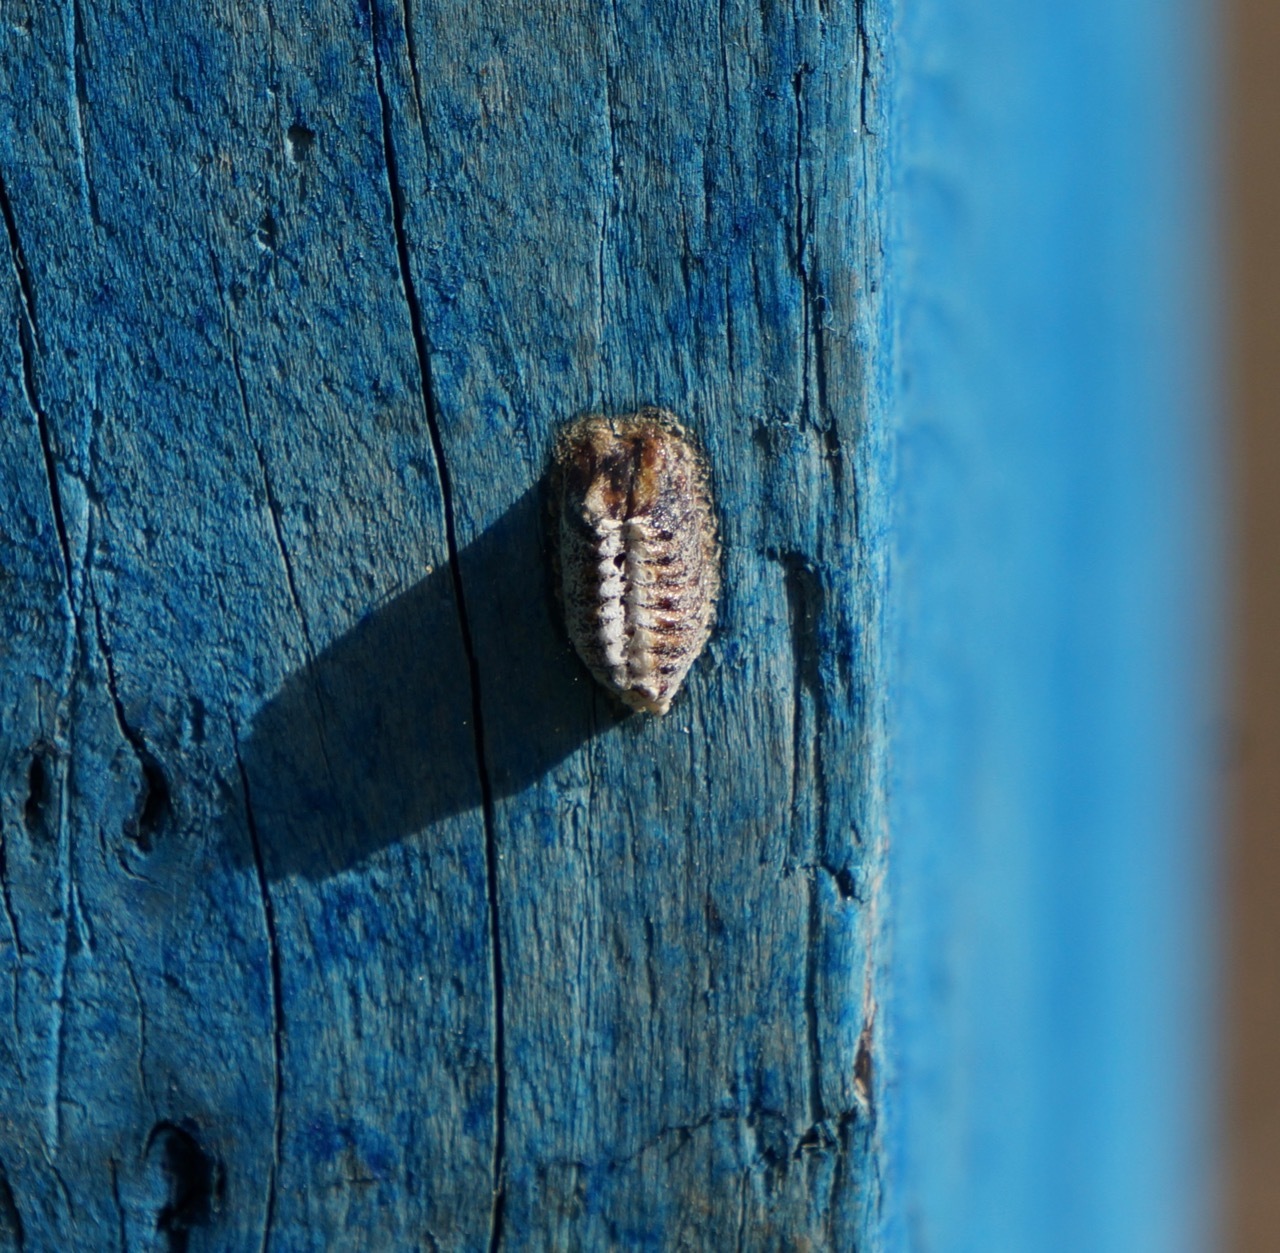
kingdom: Animalia
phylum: Arthropoda
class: Insecta
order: Mantodea
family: Mantidae
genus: Orthodera
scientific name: Orthodera novaezealandiae
